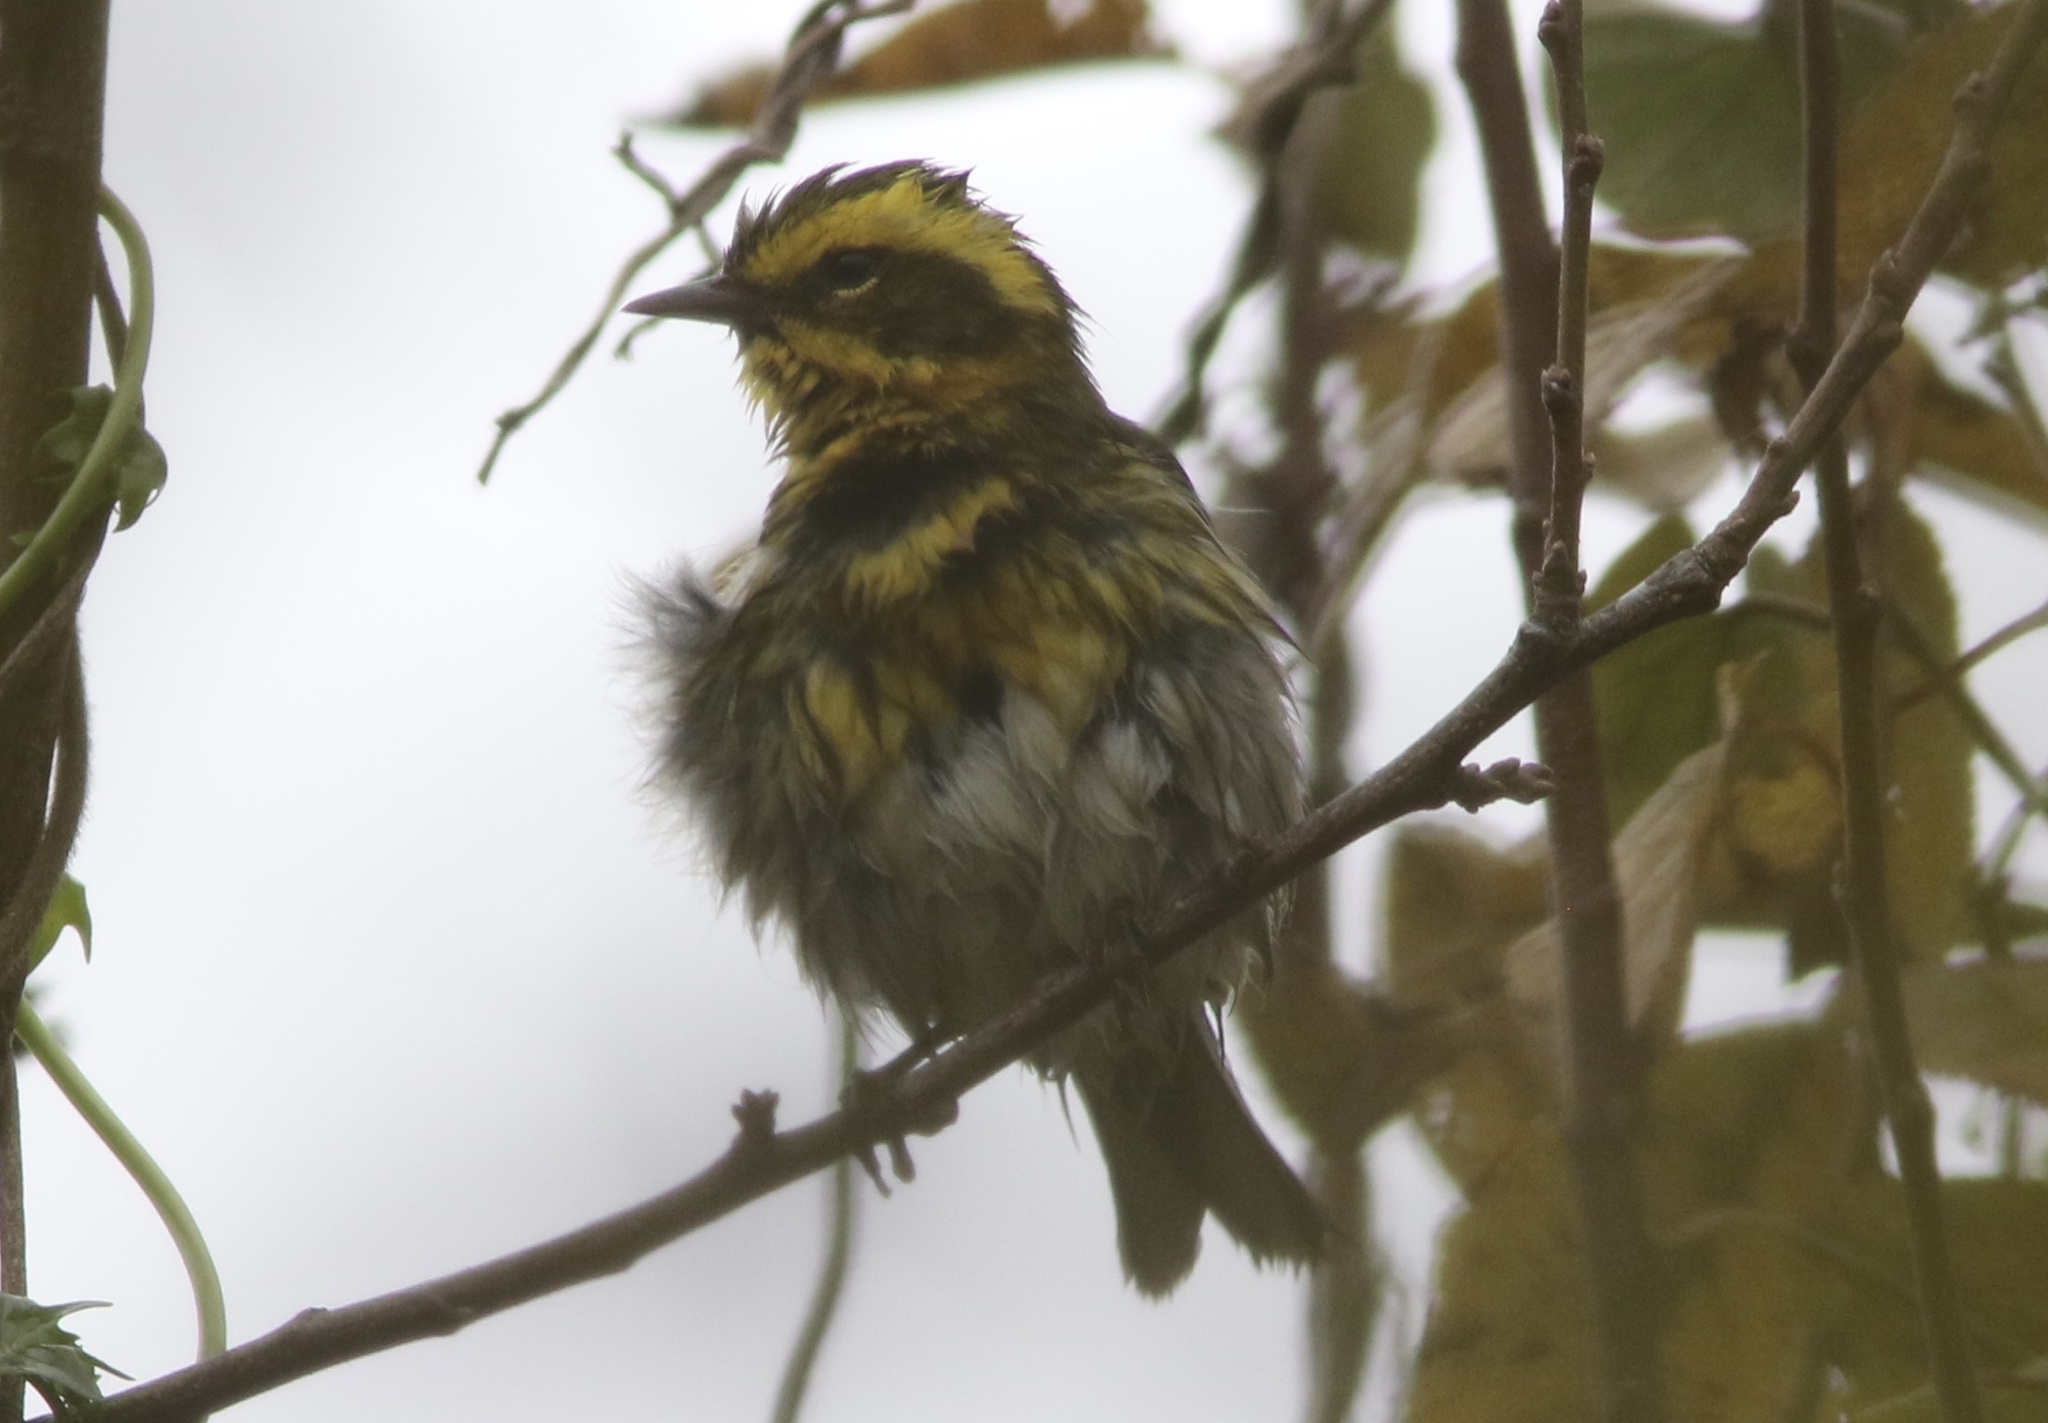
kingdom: Animalia
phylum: Chordata
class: Aves
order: Passeriformes
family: Parulidae
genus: Setophaga
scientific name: Setophaga townsendi
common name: Townsend's warbler
